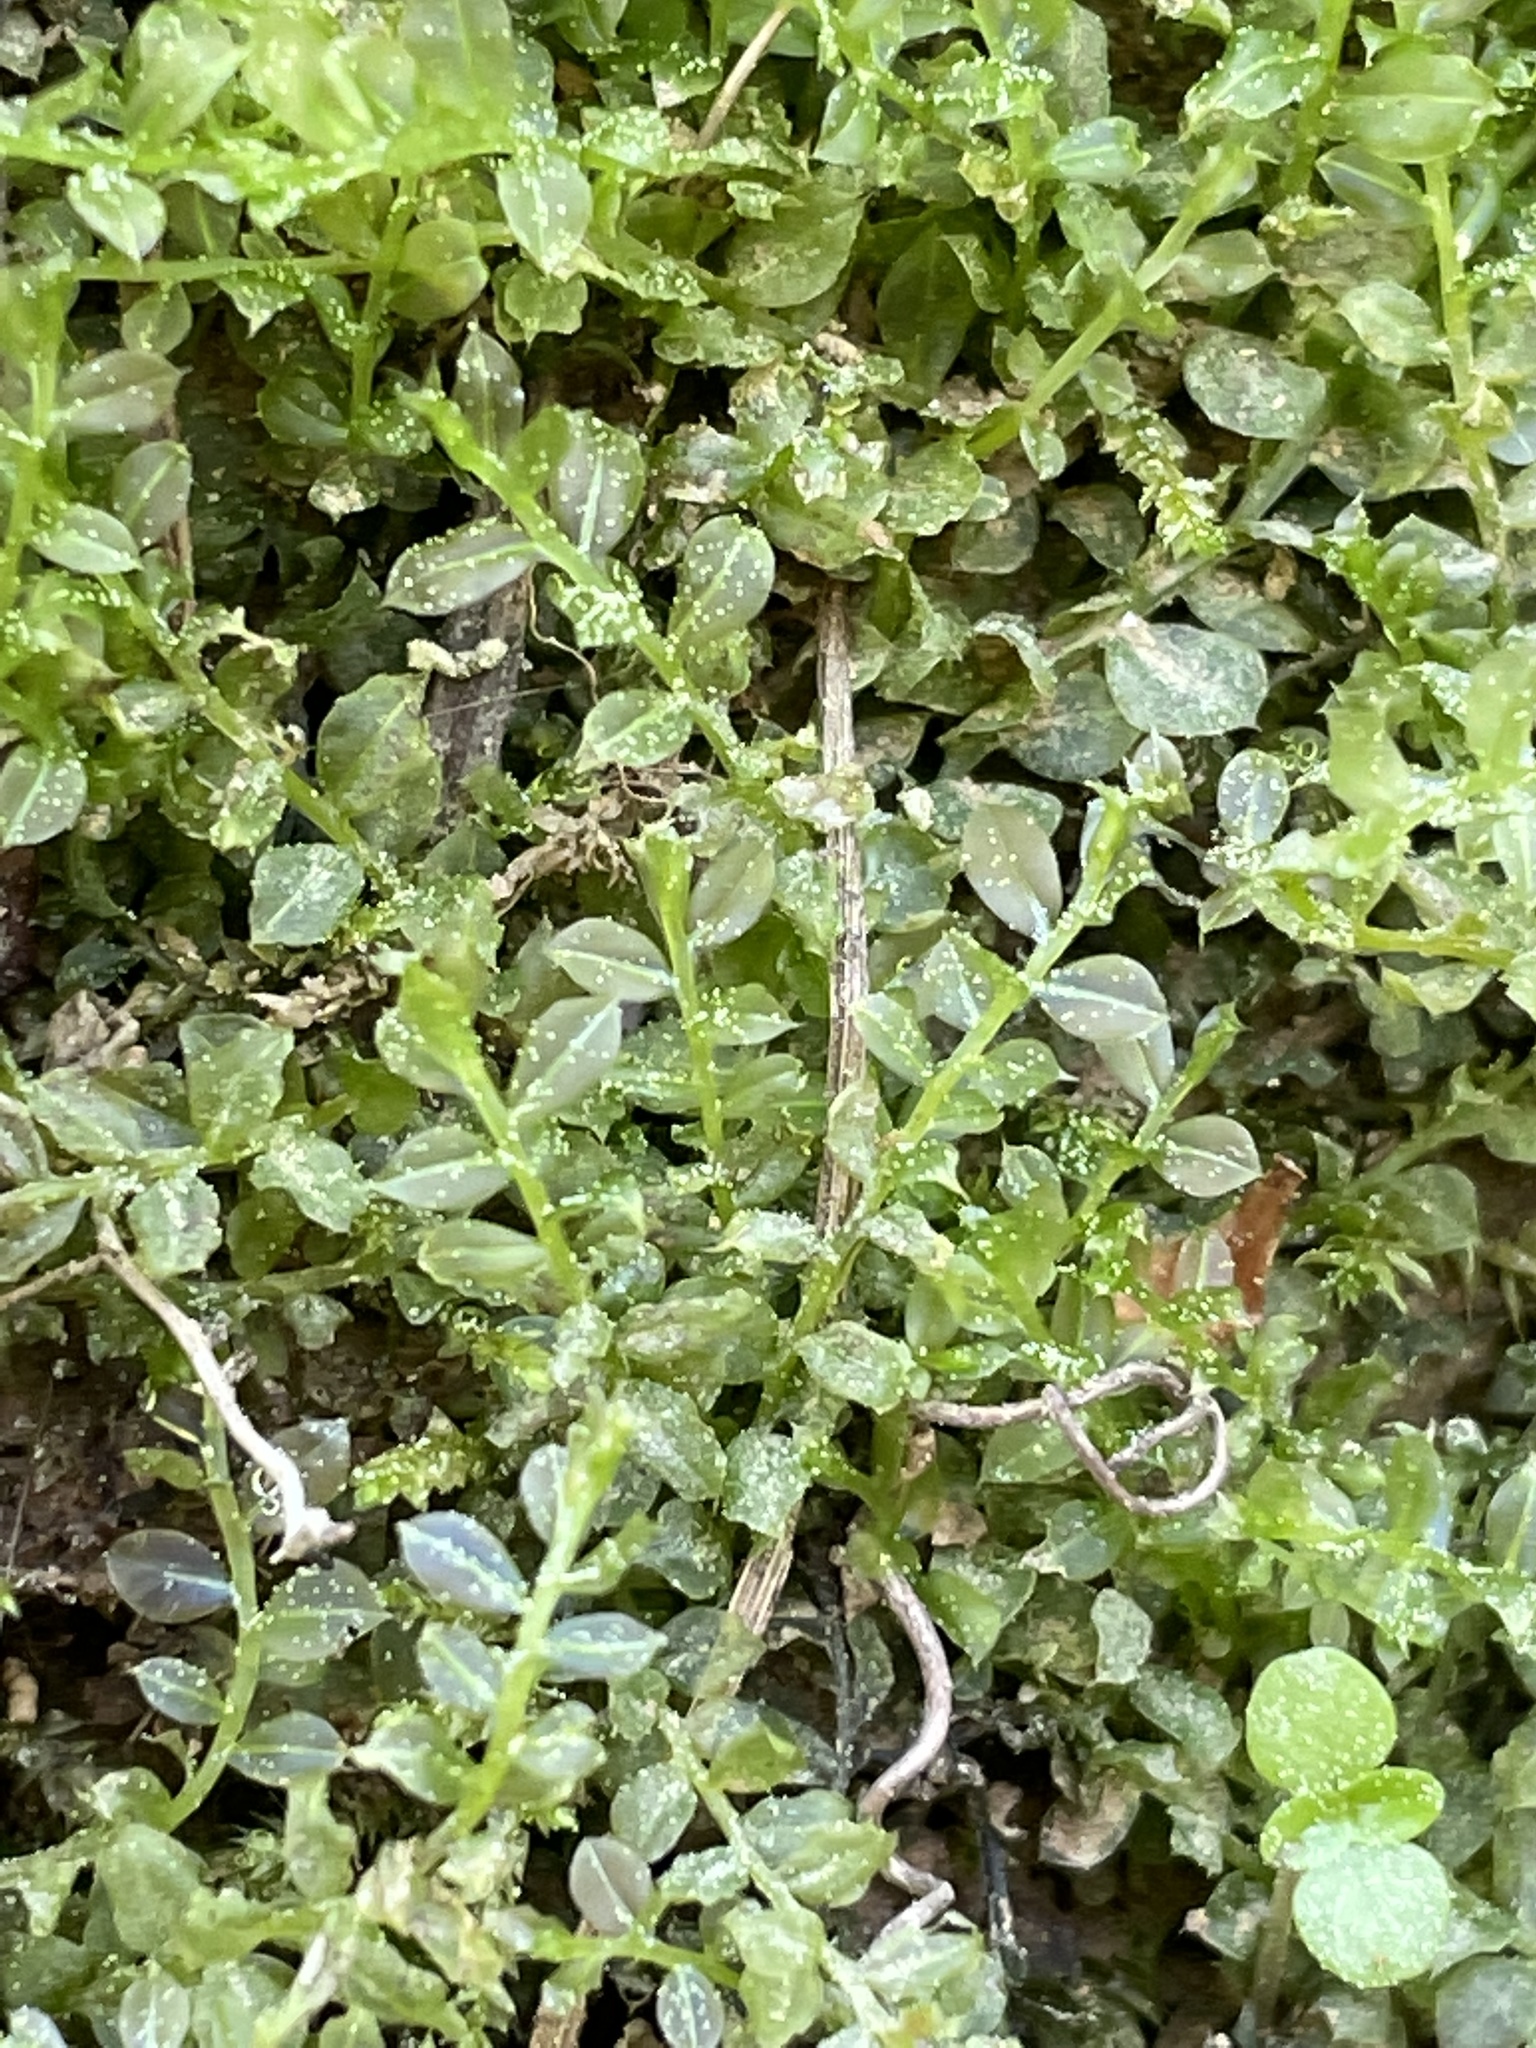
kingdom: Plantae
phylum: Bryophyta
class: Bryopsida
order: Bryales
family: Mniaceae
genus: Plagiomnium
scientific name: Plagiomnium cuspidatum
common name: Woodsy leafy moss
